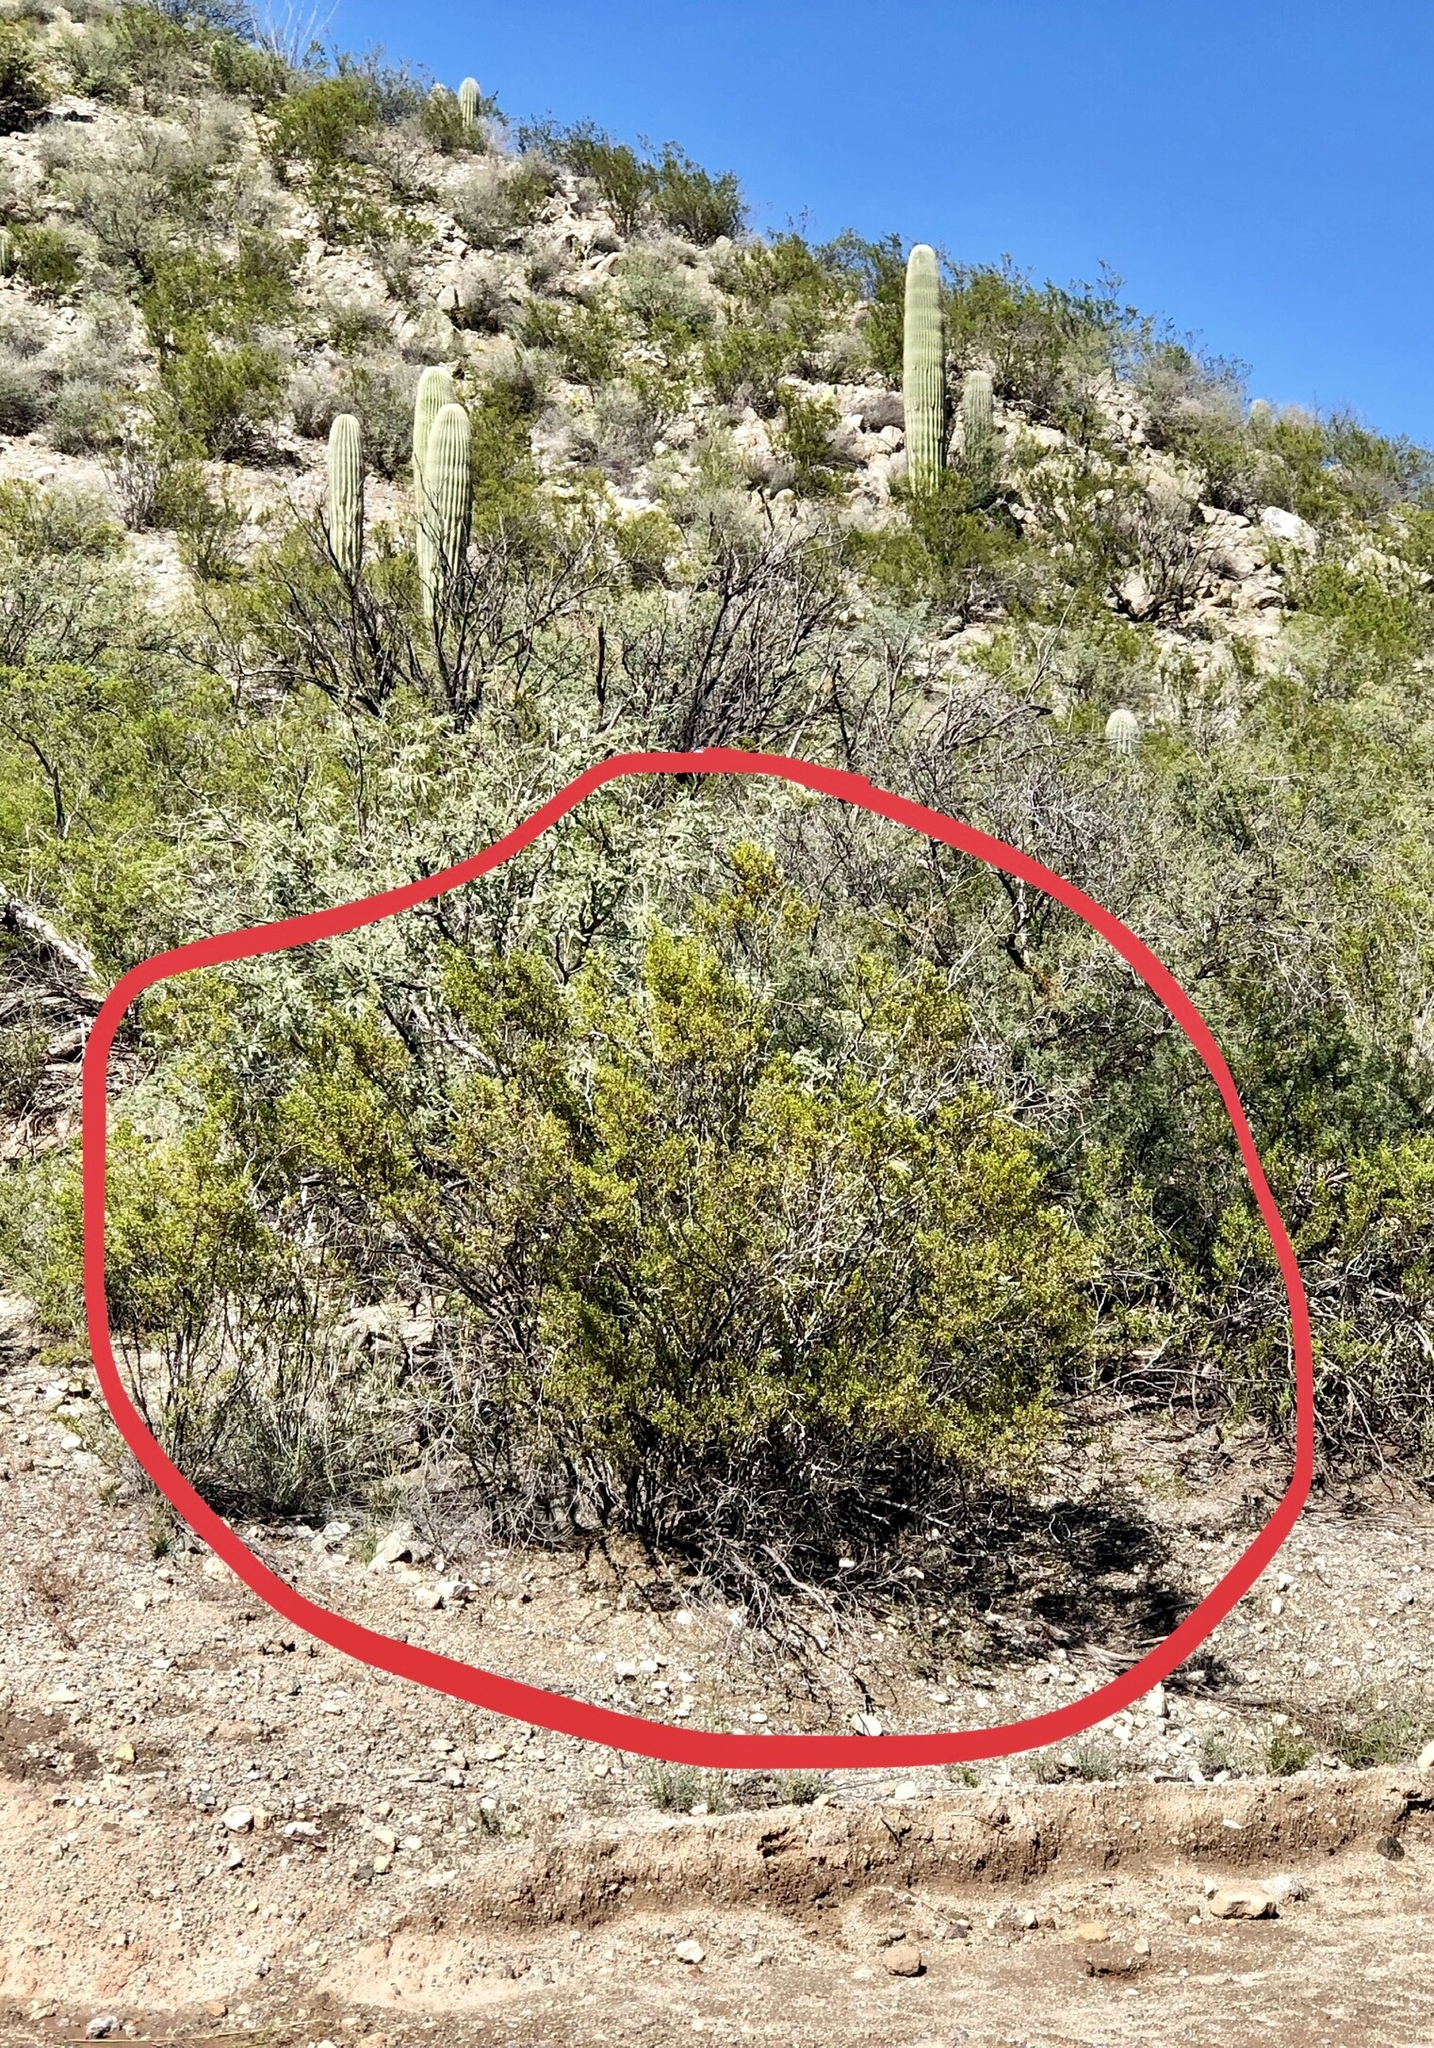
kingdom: Plantae
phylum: Tracheophyta
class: Magnoliopsida
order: Zygophyllales
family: Zygophyllaceae
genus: Larrea
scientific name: Larrea tridentata
